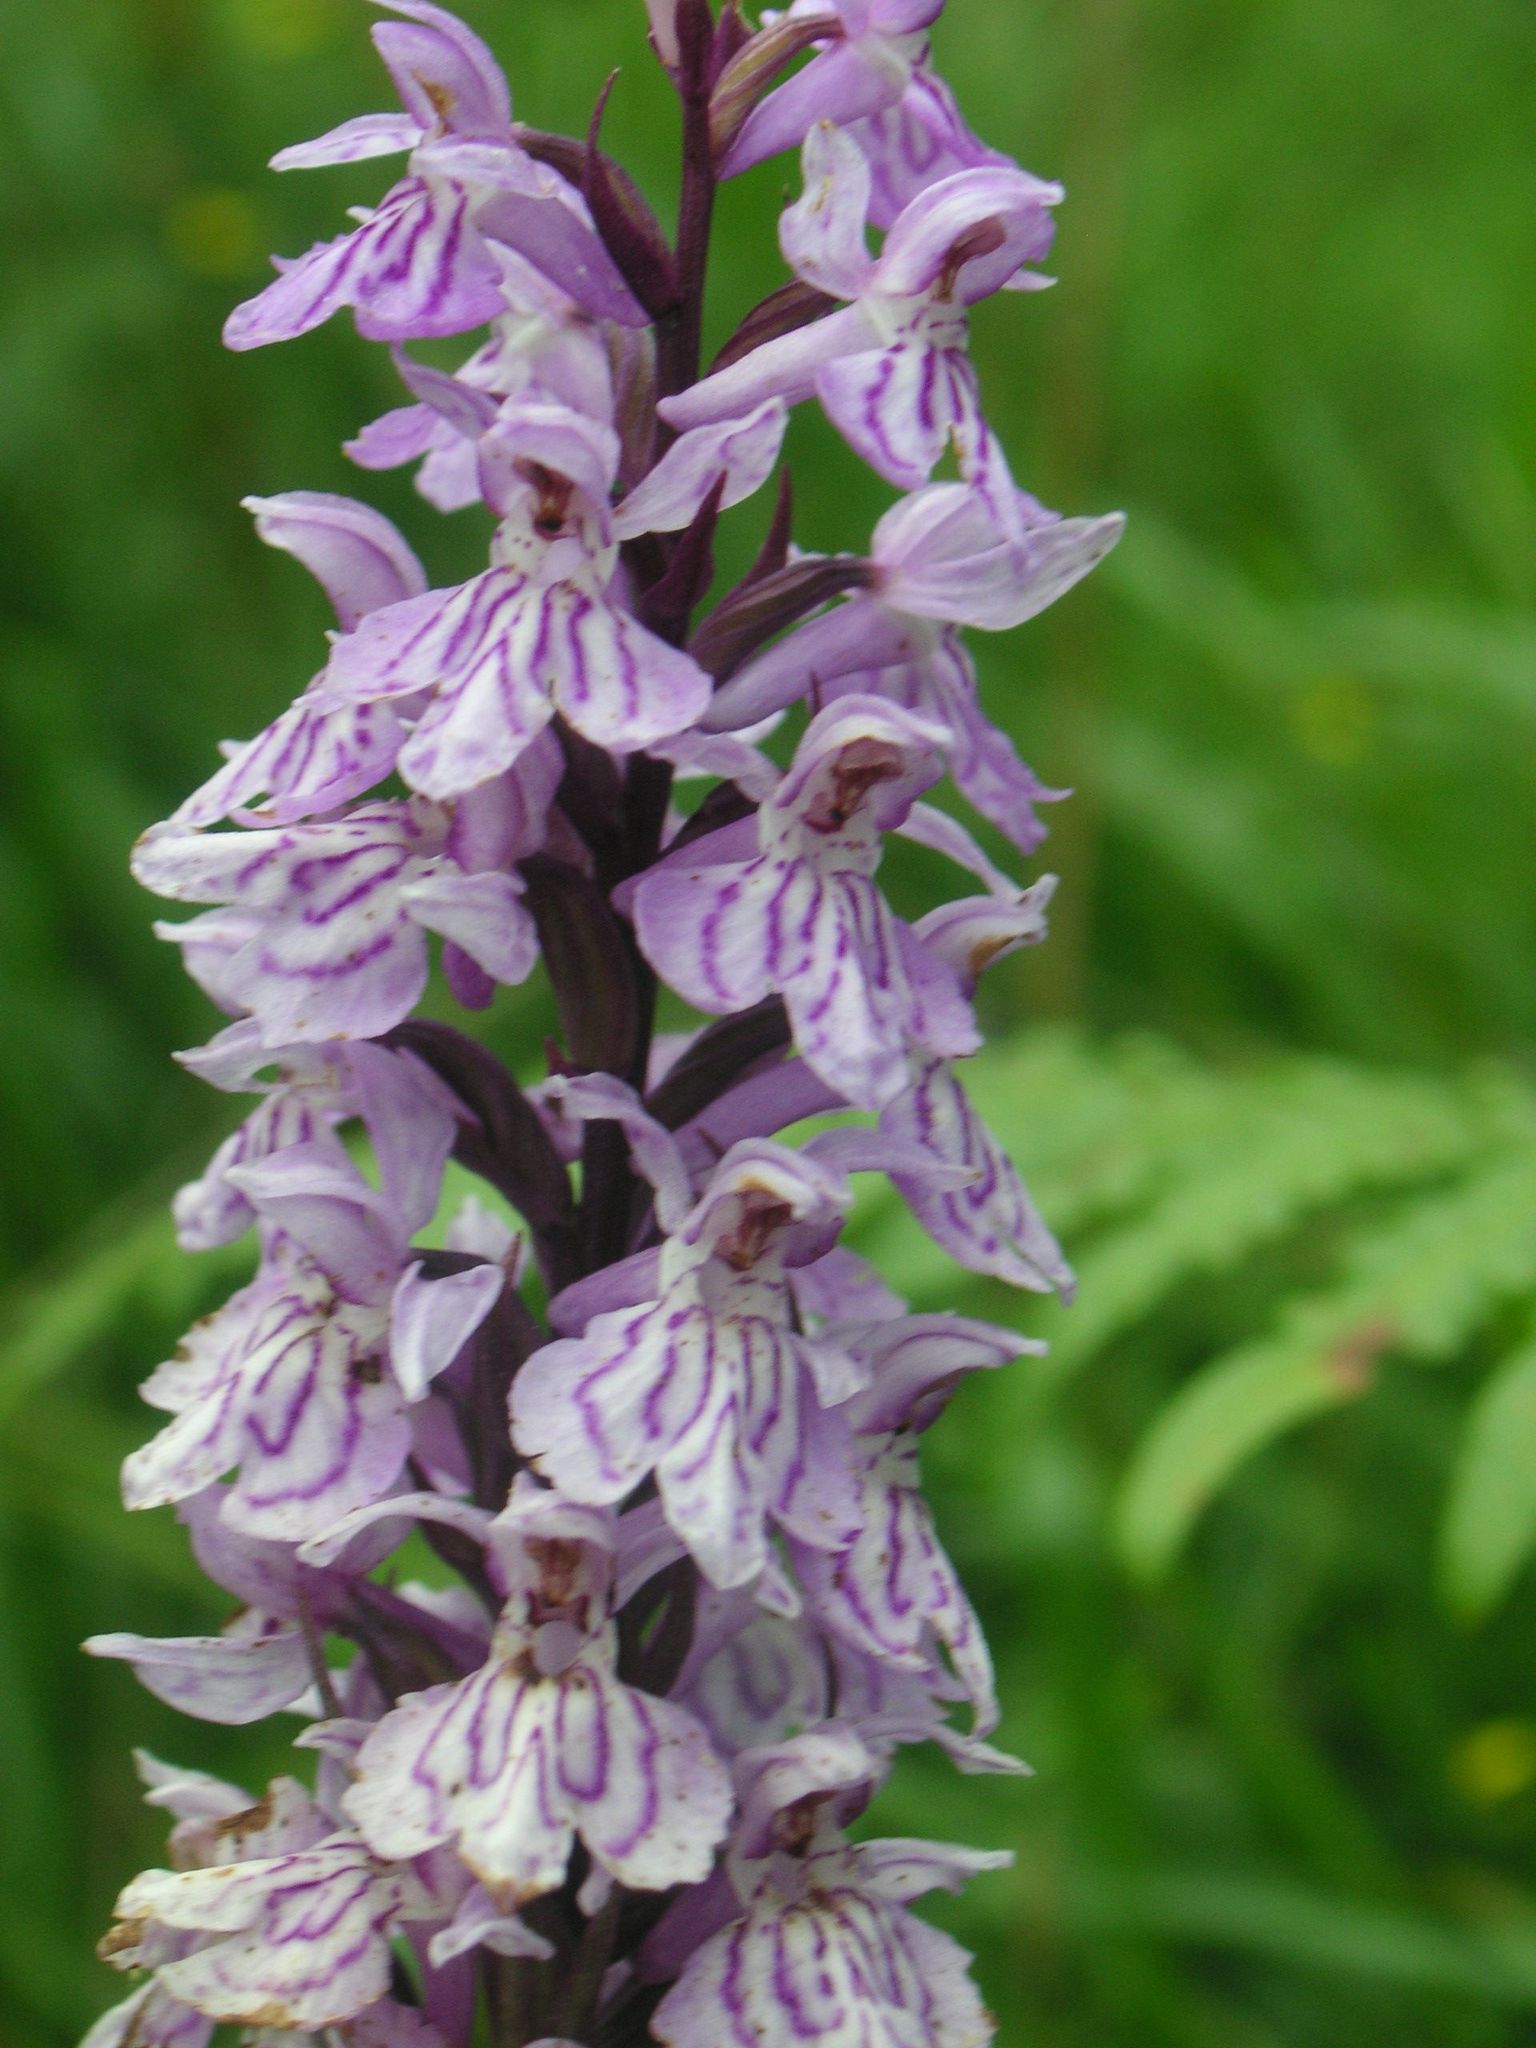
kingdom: Plantae
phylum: Tracheophyta
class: Liliopsida
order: Asparagales
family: Orchidaceae
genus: Dactylorhiza
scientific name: Dactylorhiza maculata
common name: Heath spotted-orchid
